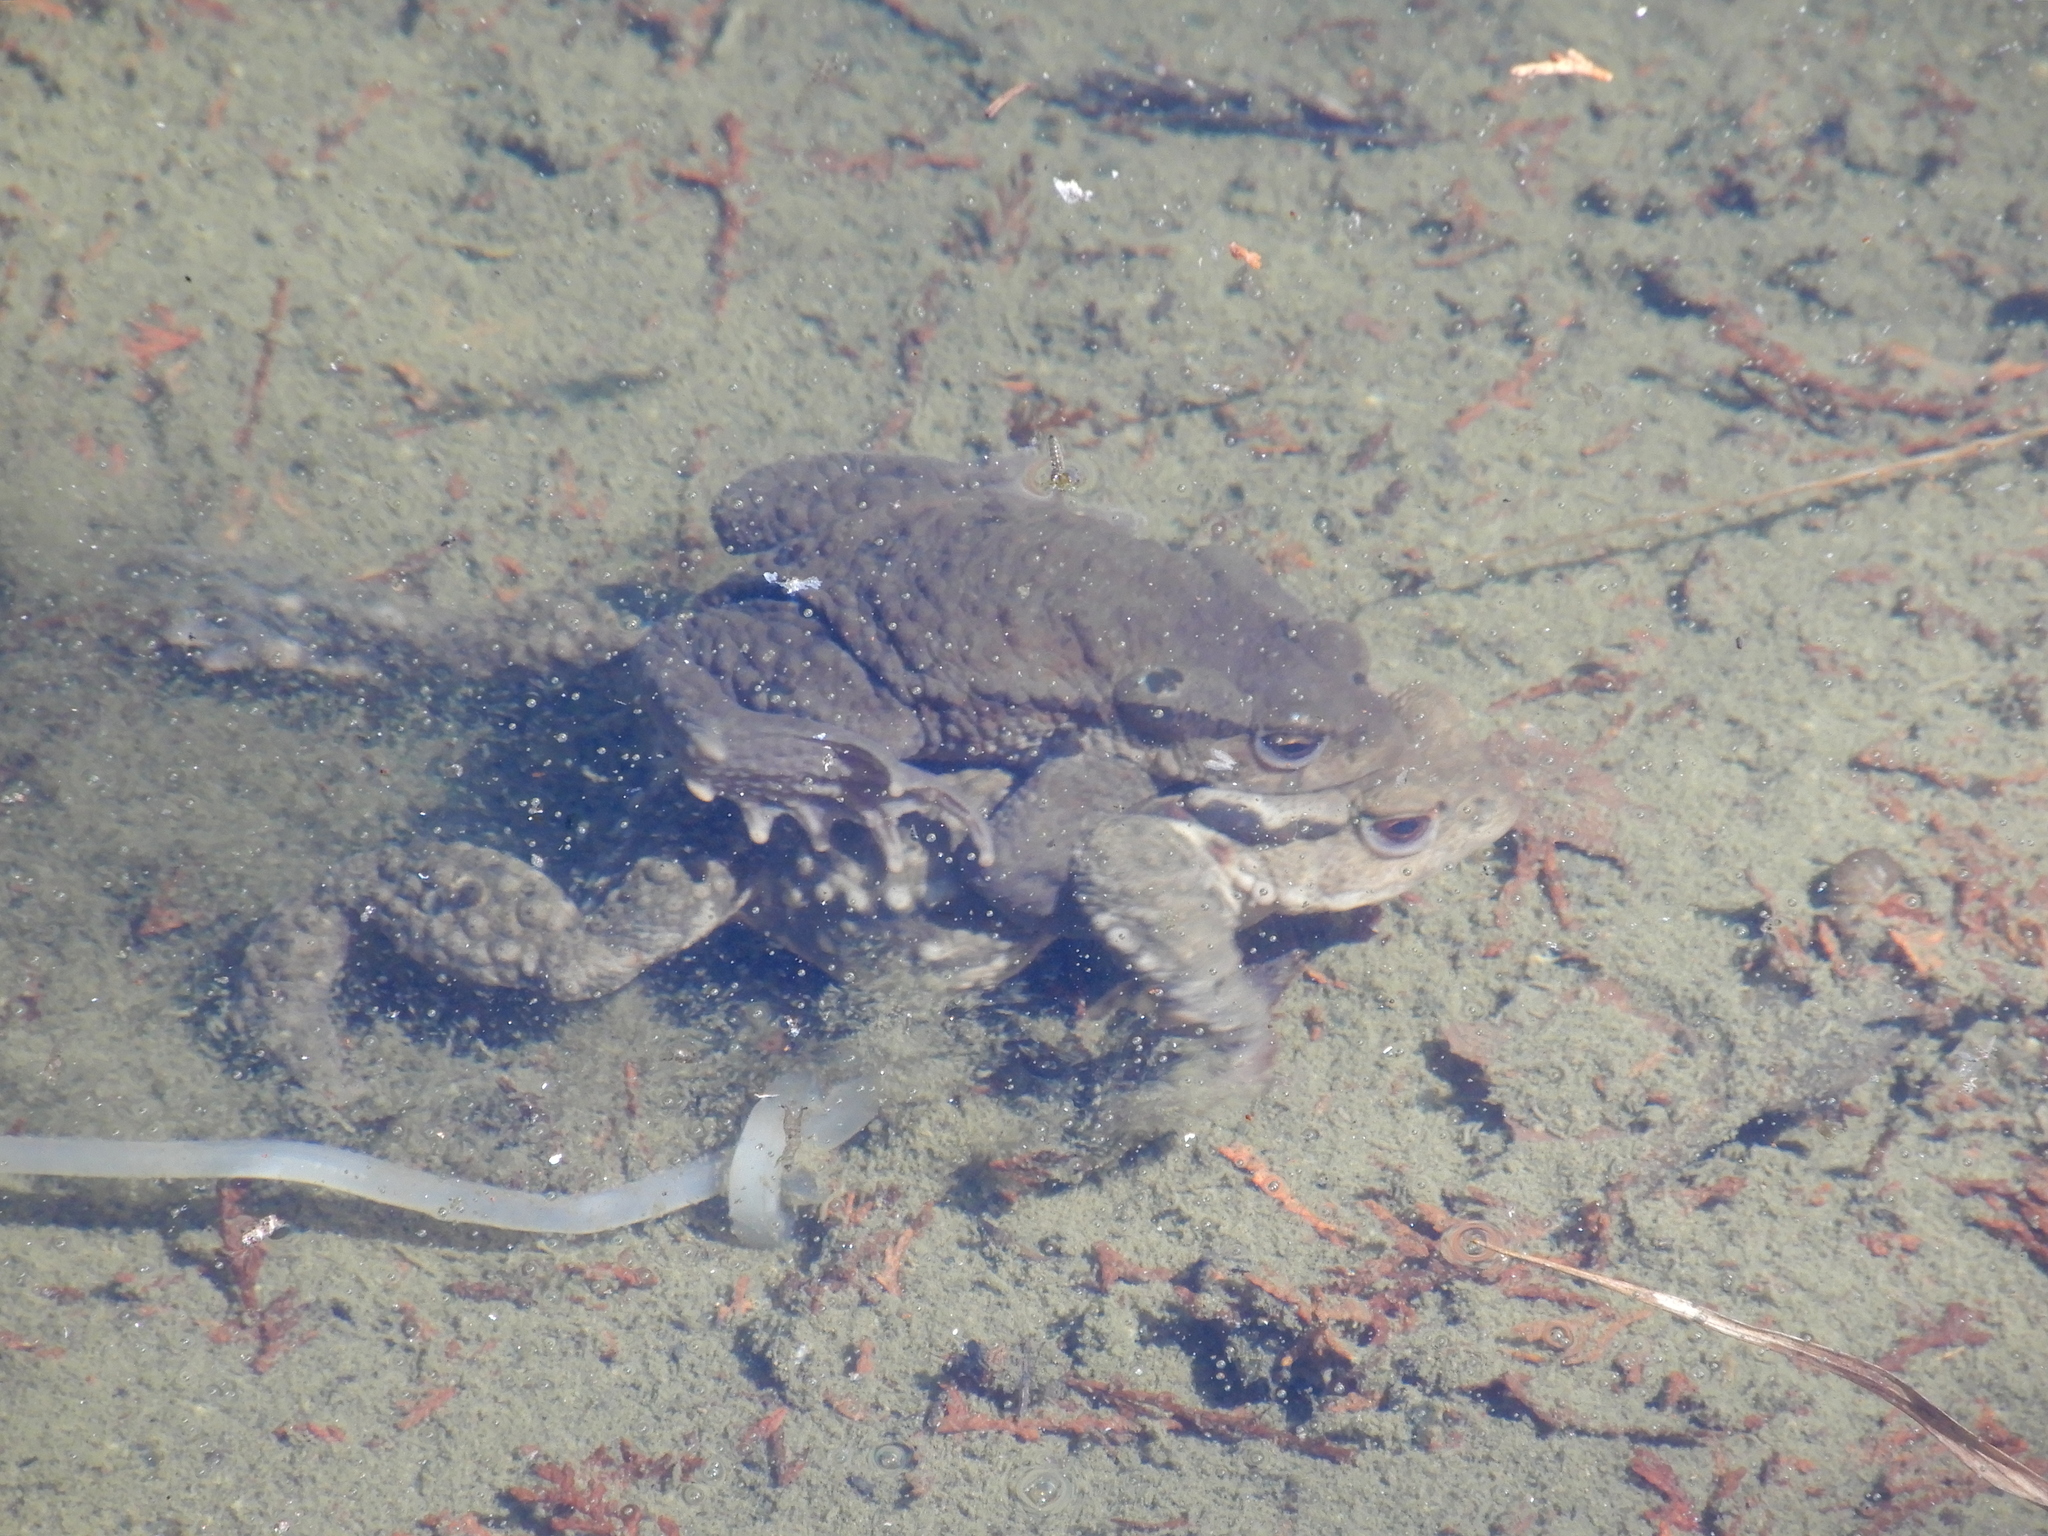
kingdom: Animalia
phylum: Chordata
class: Amphibia
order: Anura
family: Bufonidae
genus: Bufo
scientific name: Bufo bankorensis
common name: Bankor toad
